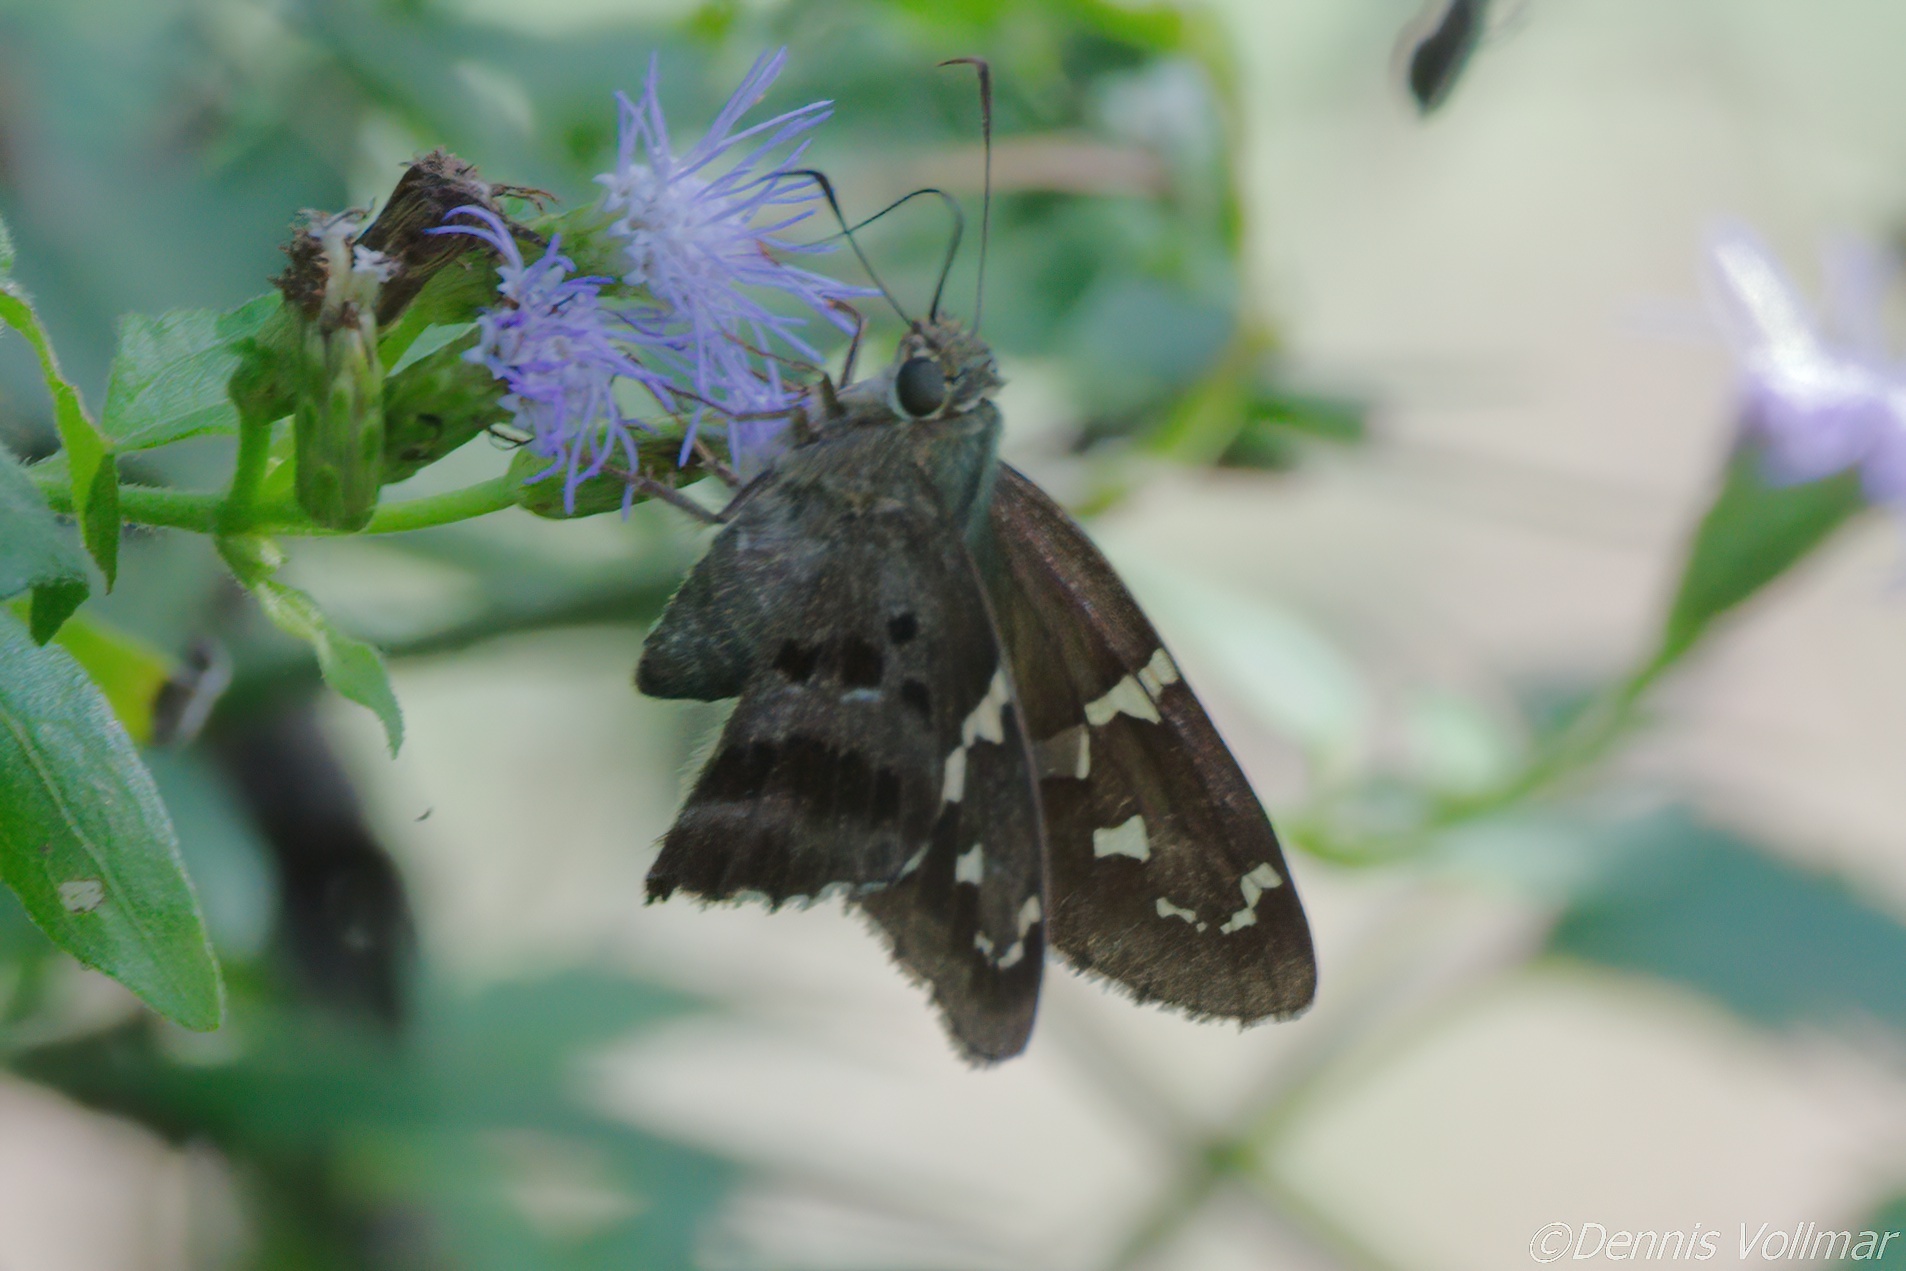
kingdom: Animalia
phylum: Arthropoda
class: Insecta
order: Lepidoptera
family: Hesperiidae
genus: Urbanus
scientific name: Urbanus proteus
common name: Long-tailed skipper
